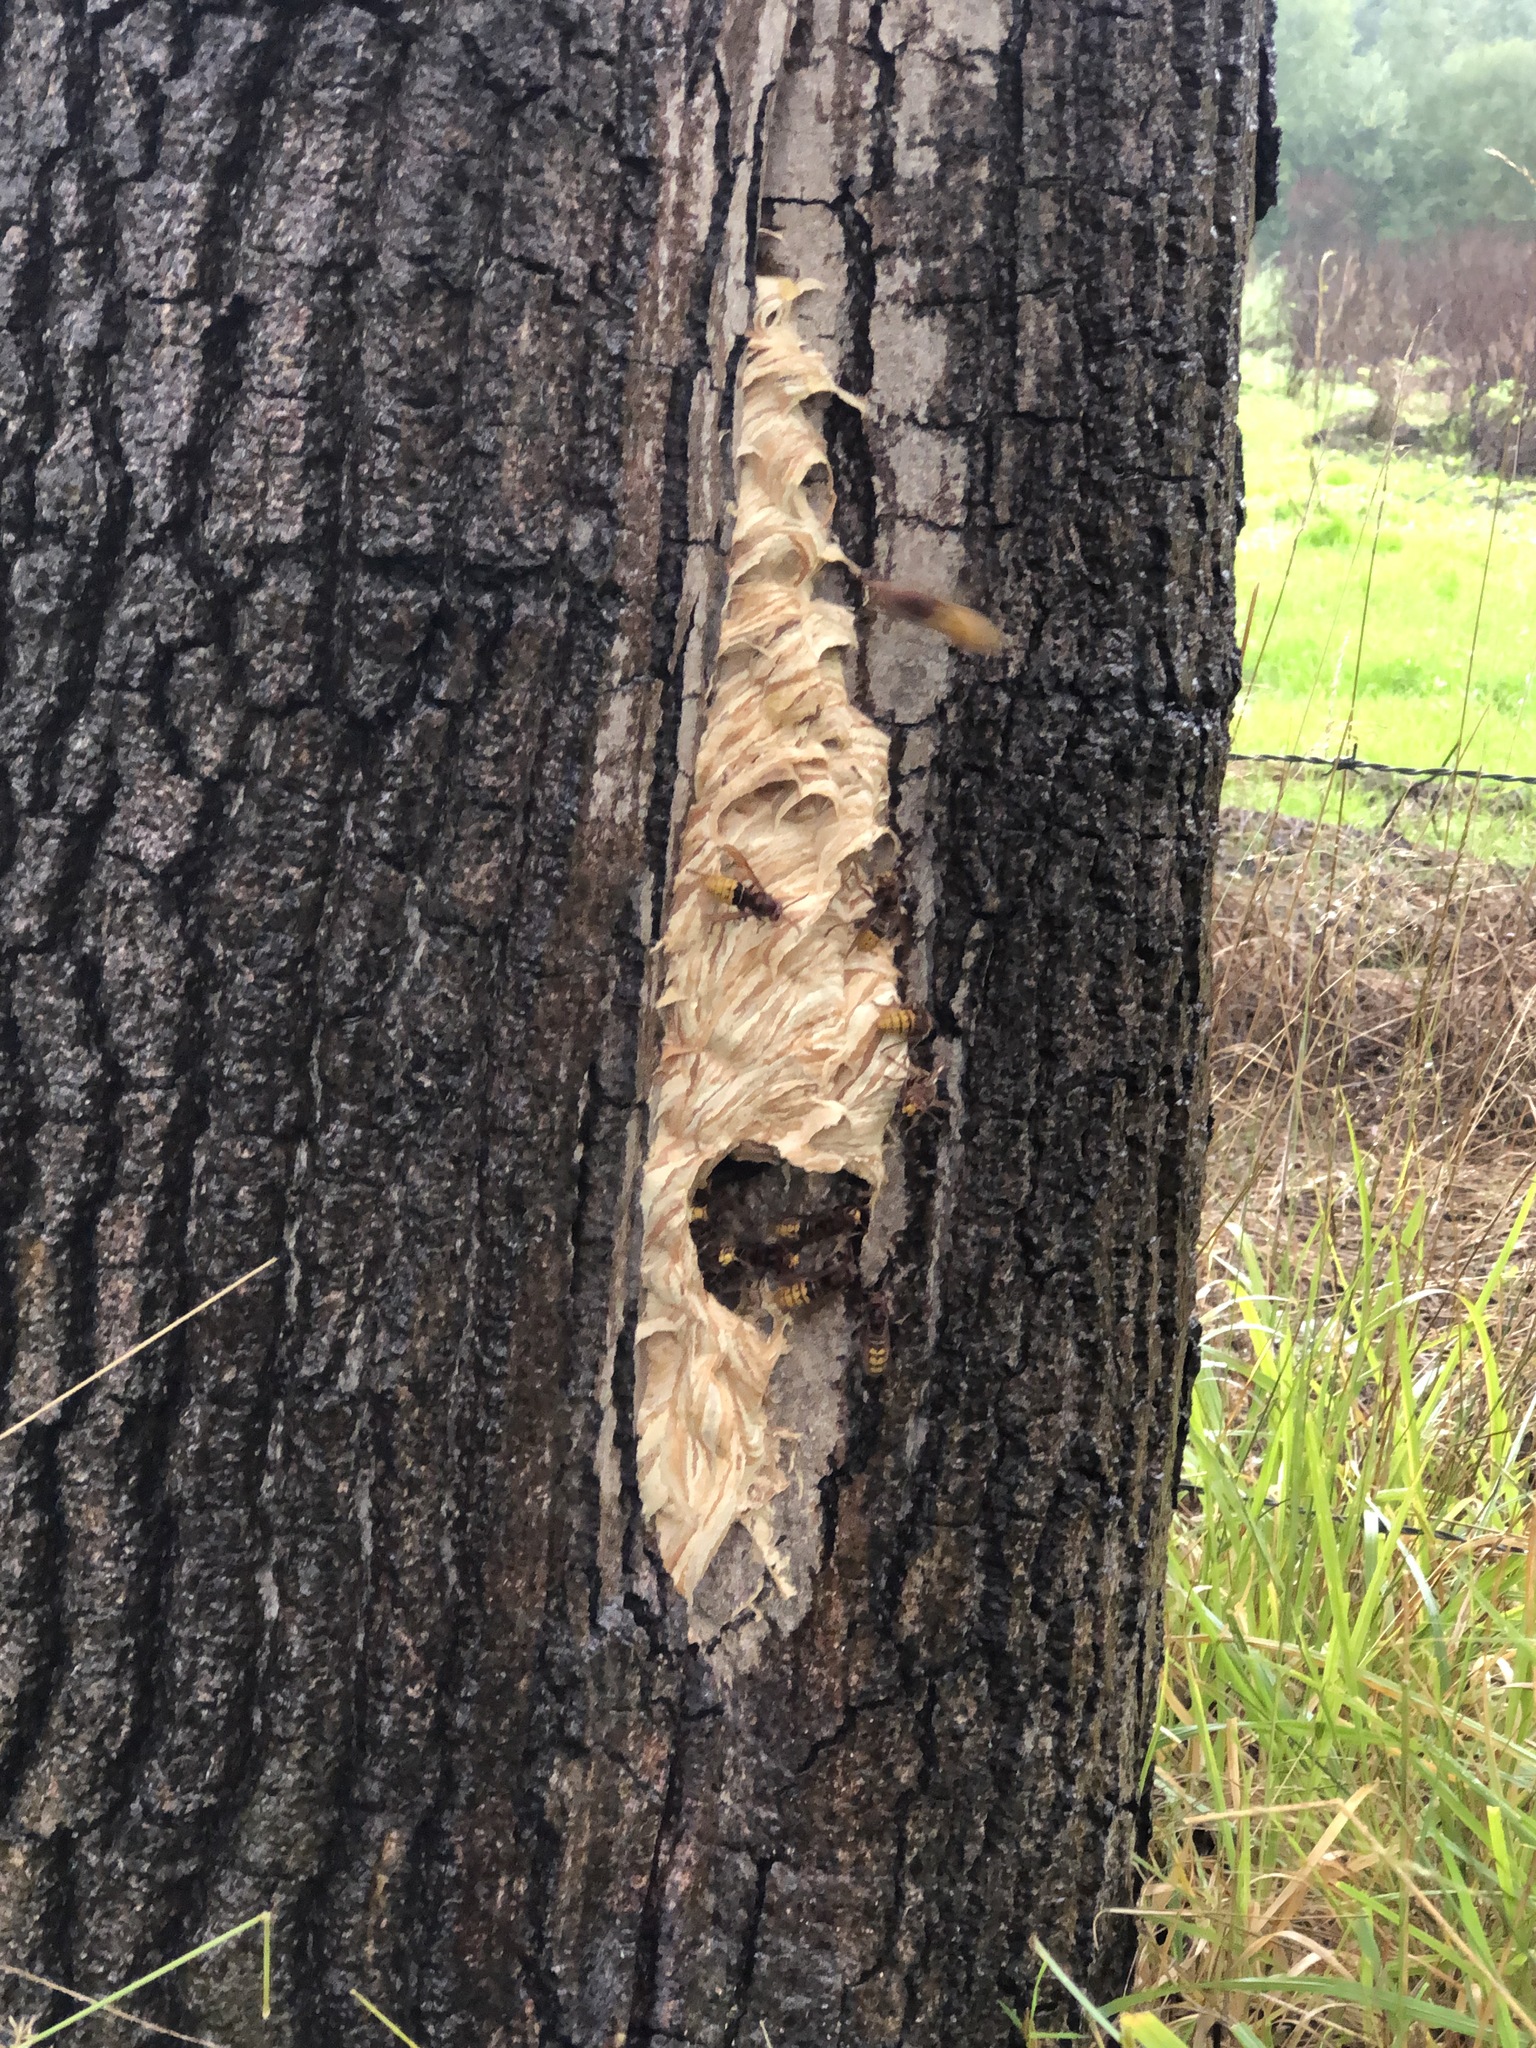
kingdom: Animalia
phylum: Arthropoda
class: Insecta
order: Hymenoptera
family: Vespidae
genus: Vespa
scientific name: Vespa crabro
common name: Hornet
